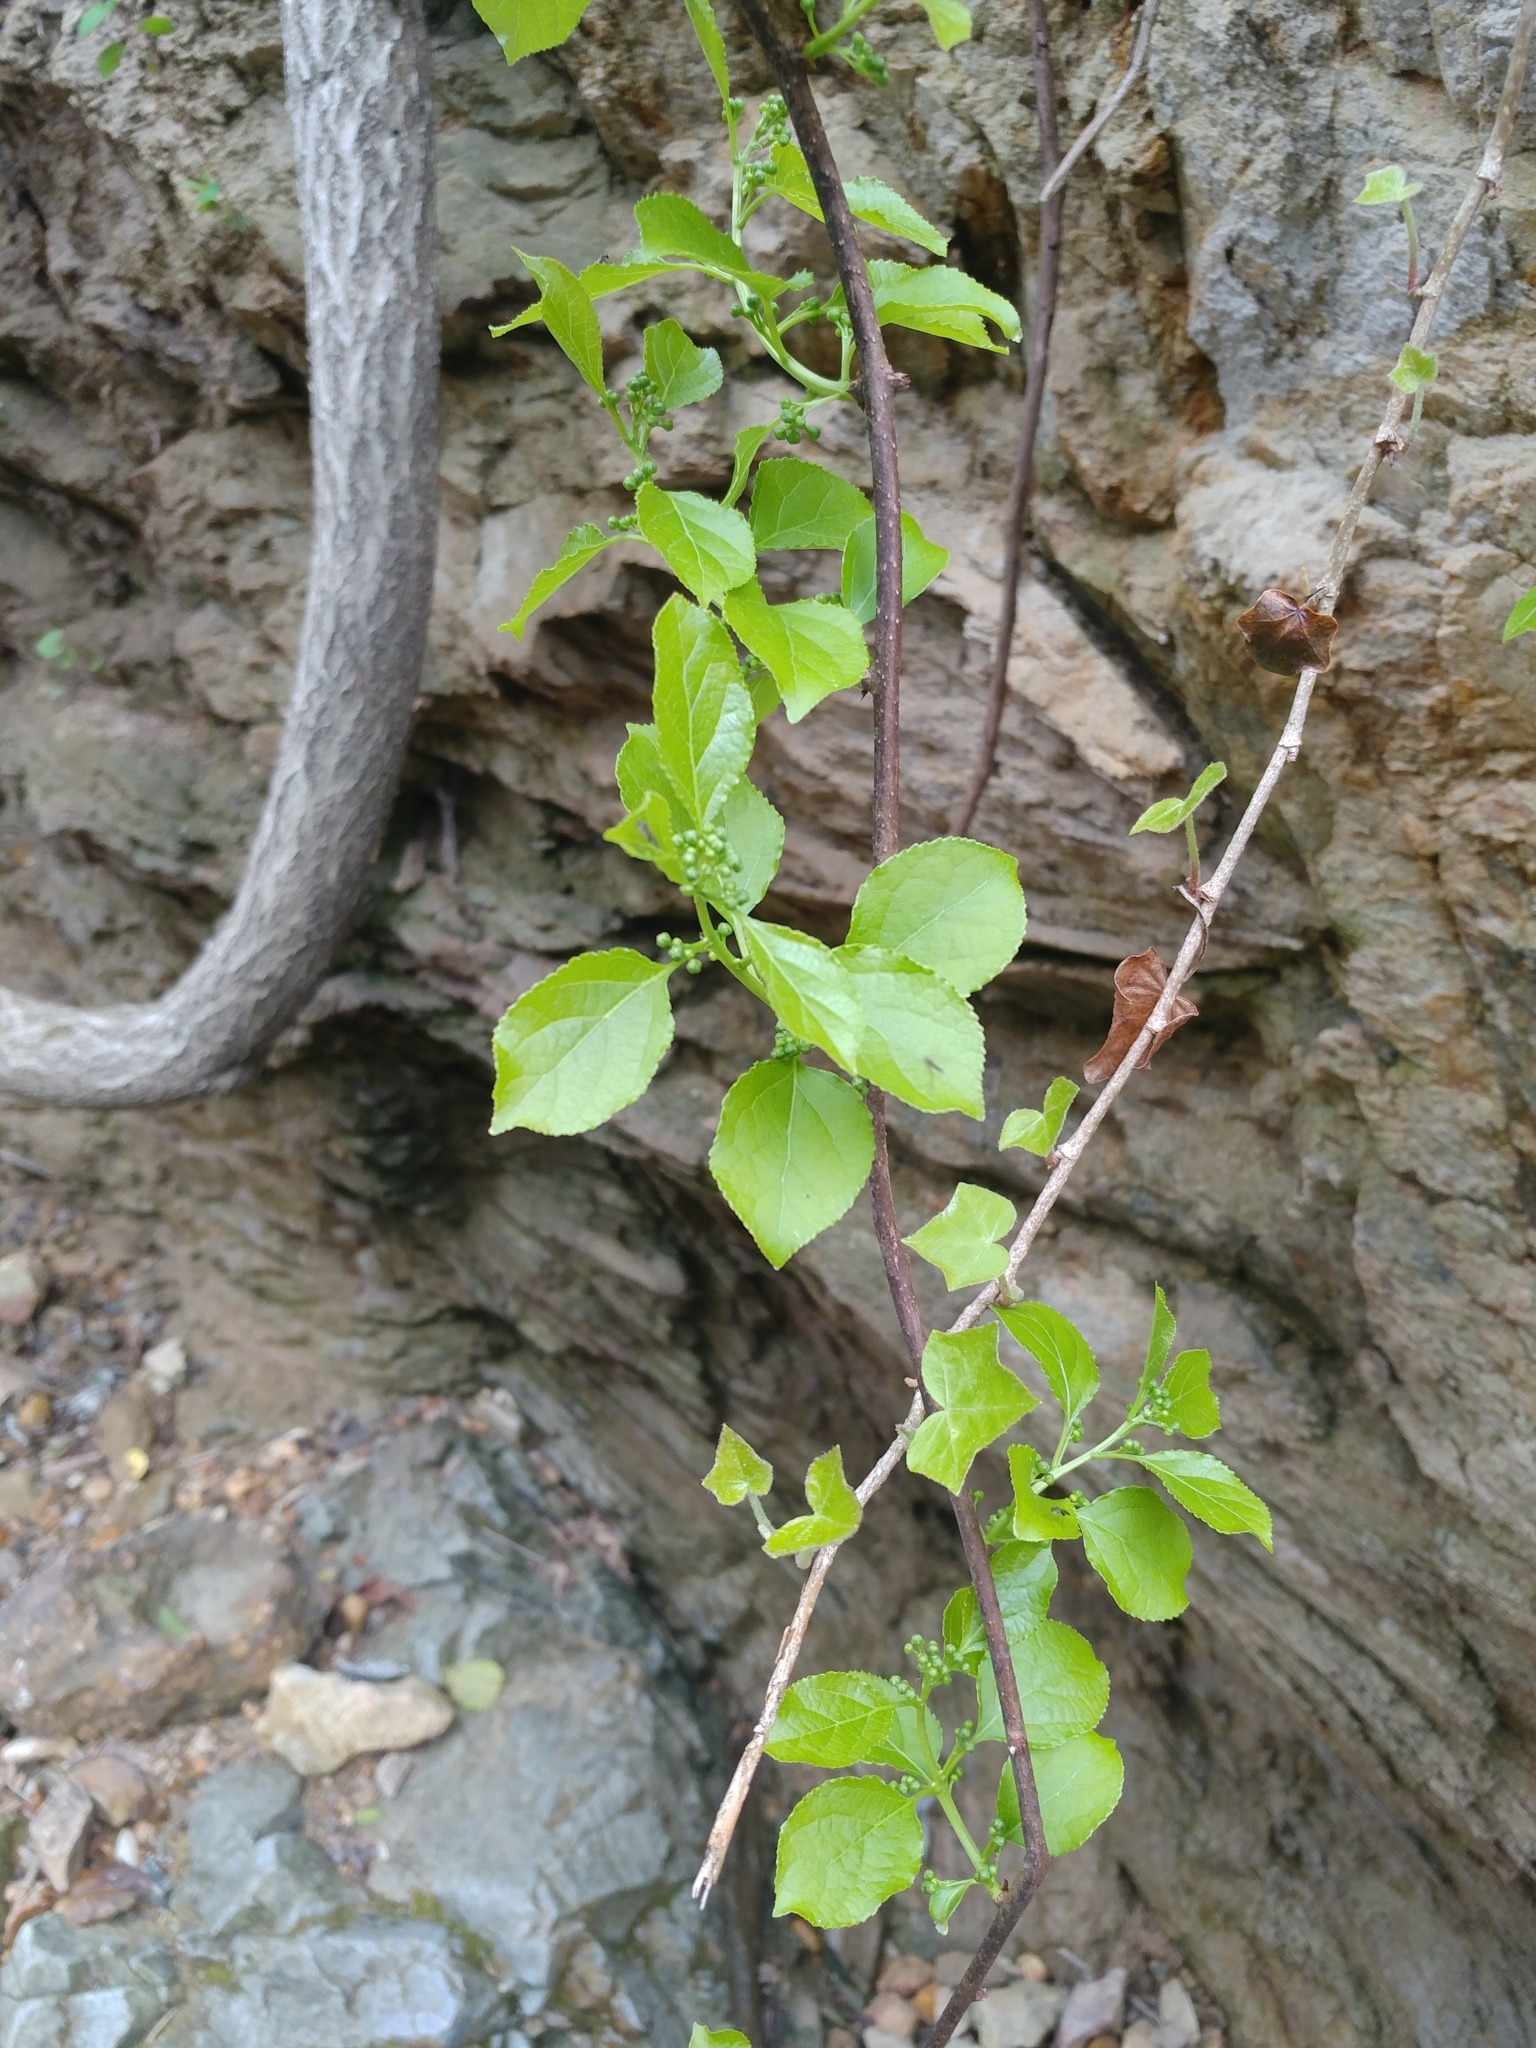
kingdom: Plantae
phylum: Tracheophyta
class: Magnoliopsida
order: Celastrales
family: Celastraceae
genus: Celastrus
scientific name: Celastrus orbiculatus
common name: Oriental bittersweet
